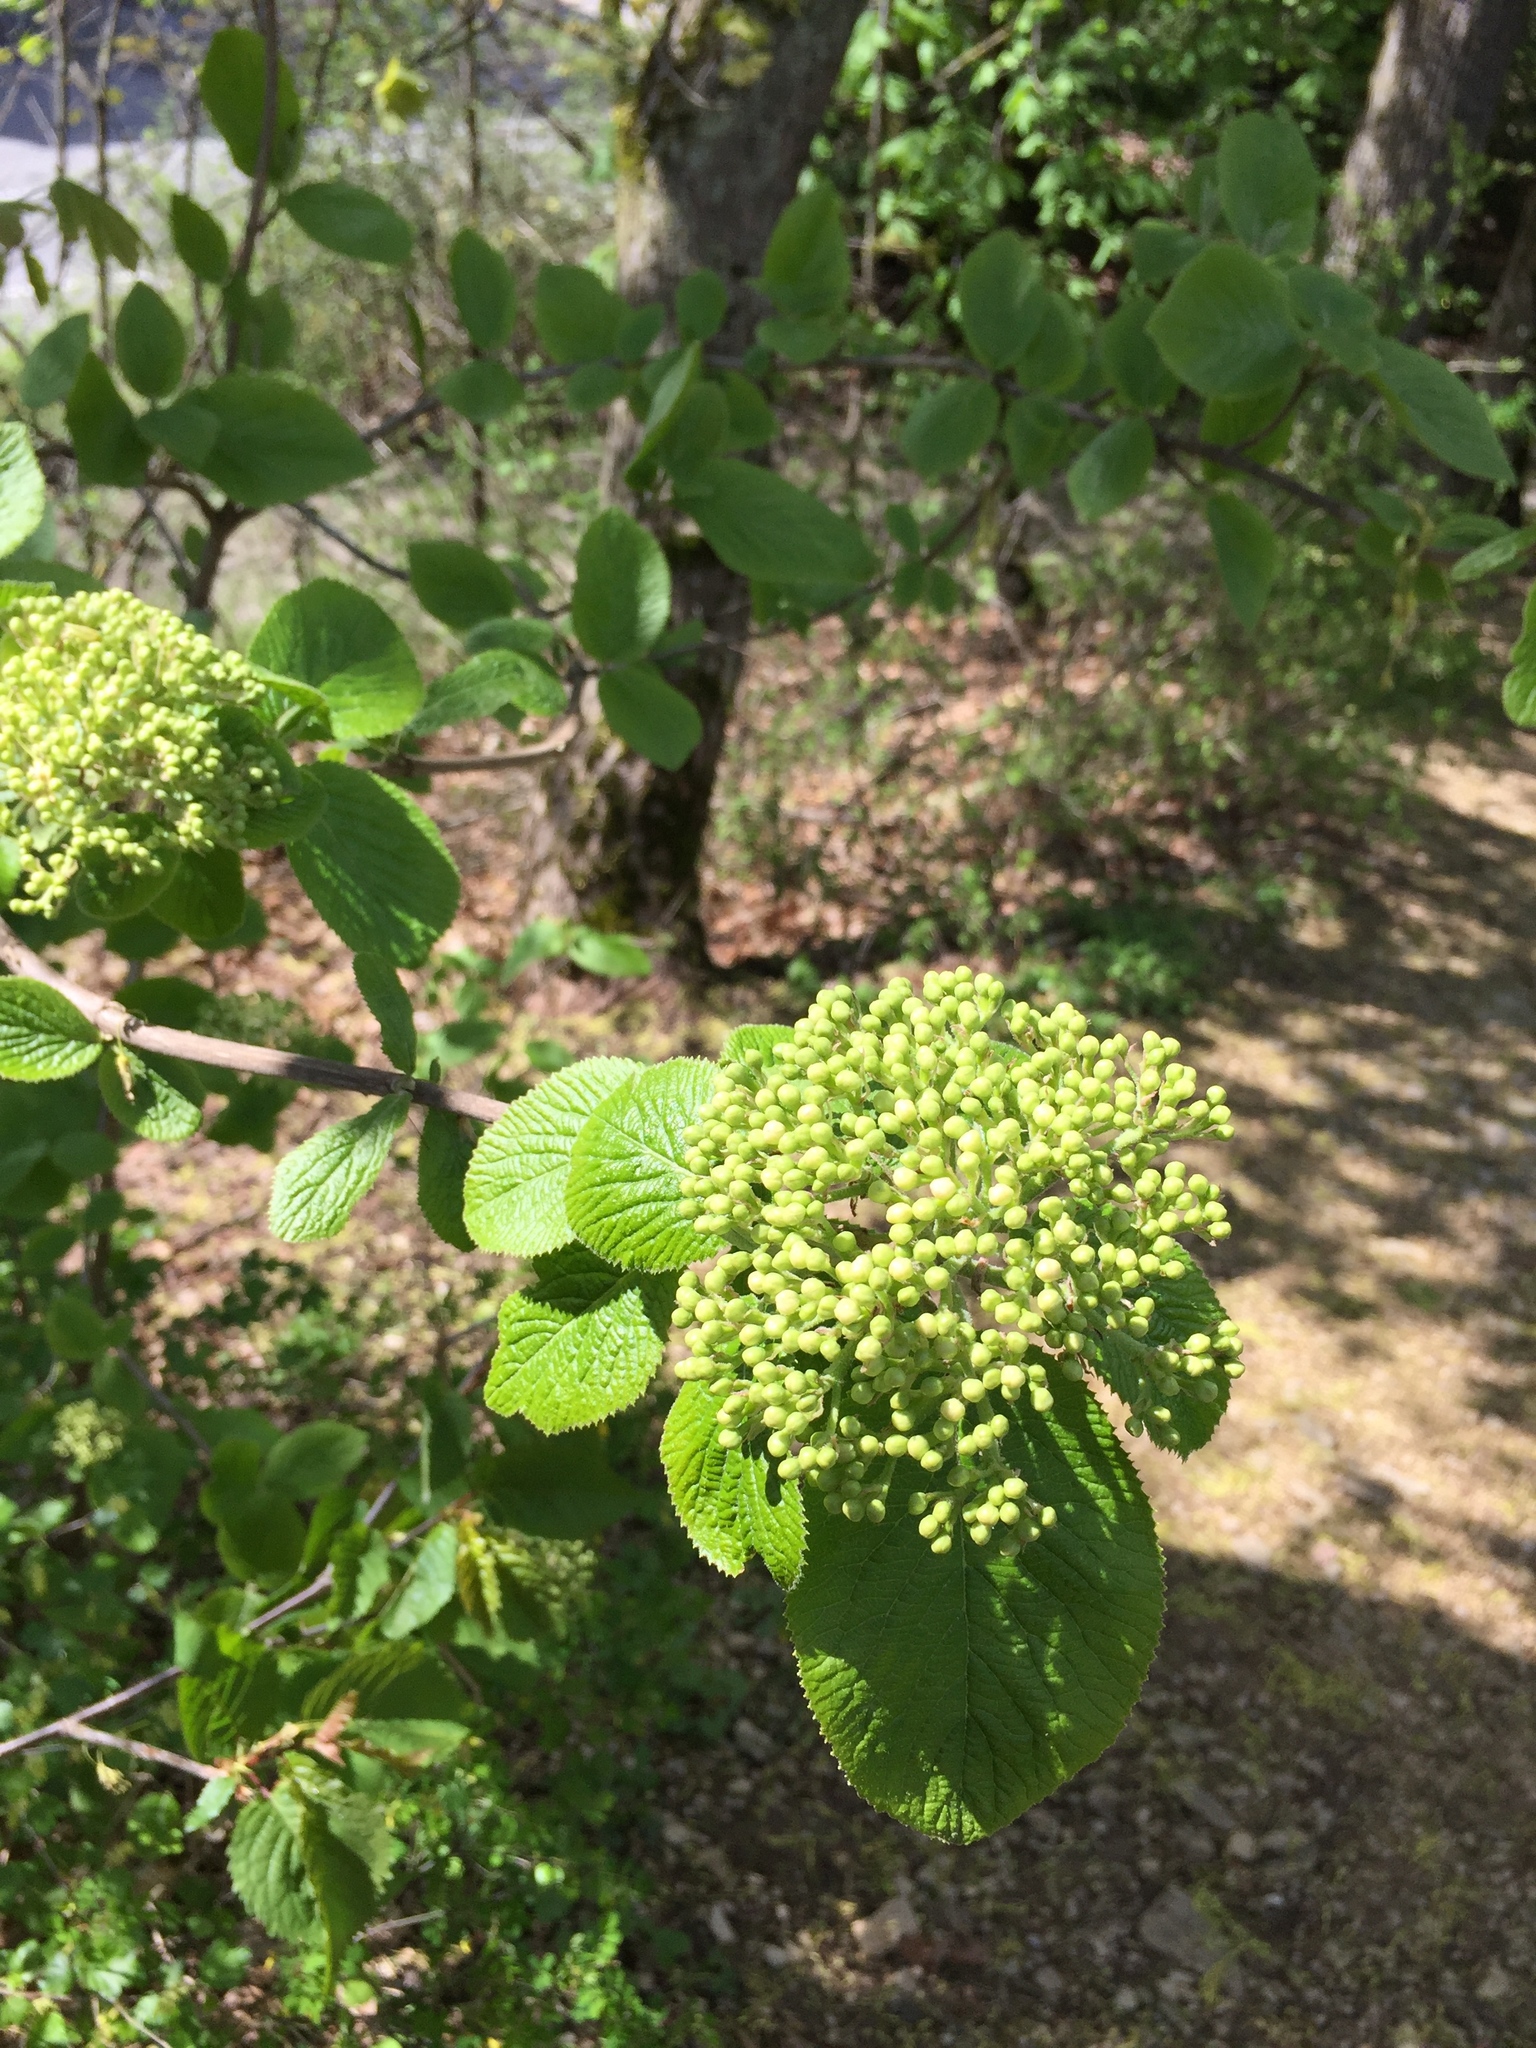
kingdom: Plantae
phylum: Tracheophyta
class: Magnoliopsida
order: Dipsacales
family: Viburnaceae
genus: Viburnum
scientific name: Viburnum lantana
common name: Wayfaring tree
